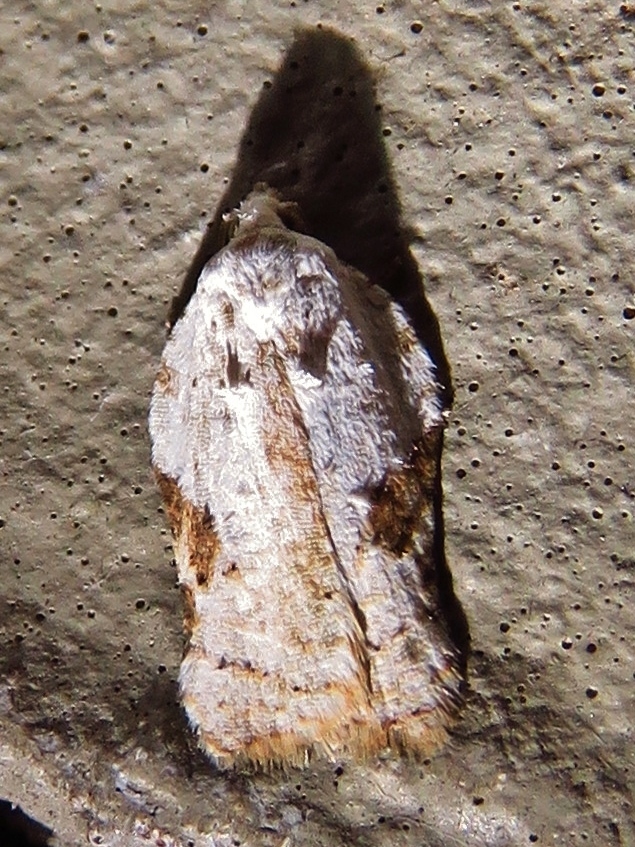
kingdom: Animalia
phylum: Arthropoda
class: Insecta
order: Lepidoptera
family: Tortricidae
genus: Acleris
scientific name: Acleris subnivana
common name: Bent-winged acleris moth
